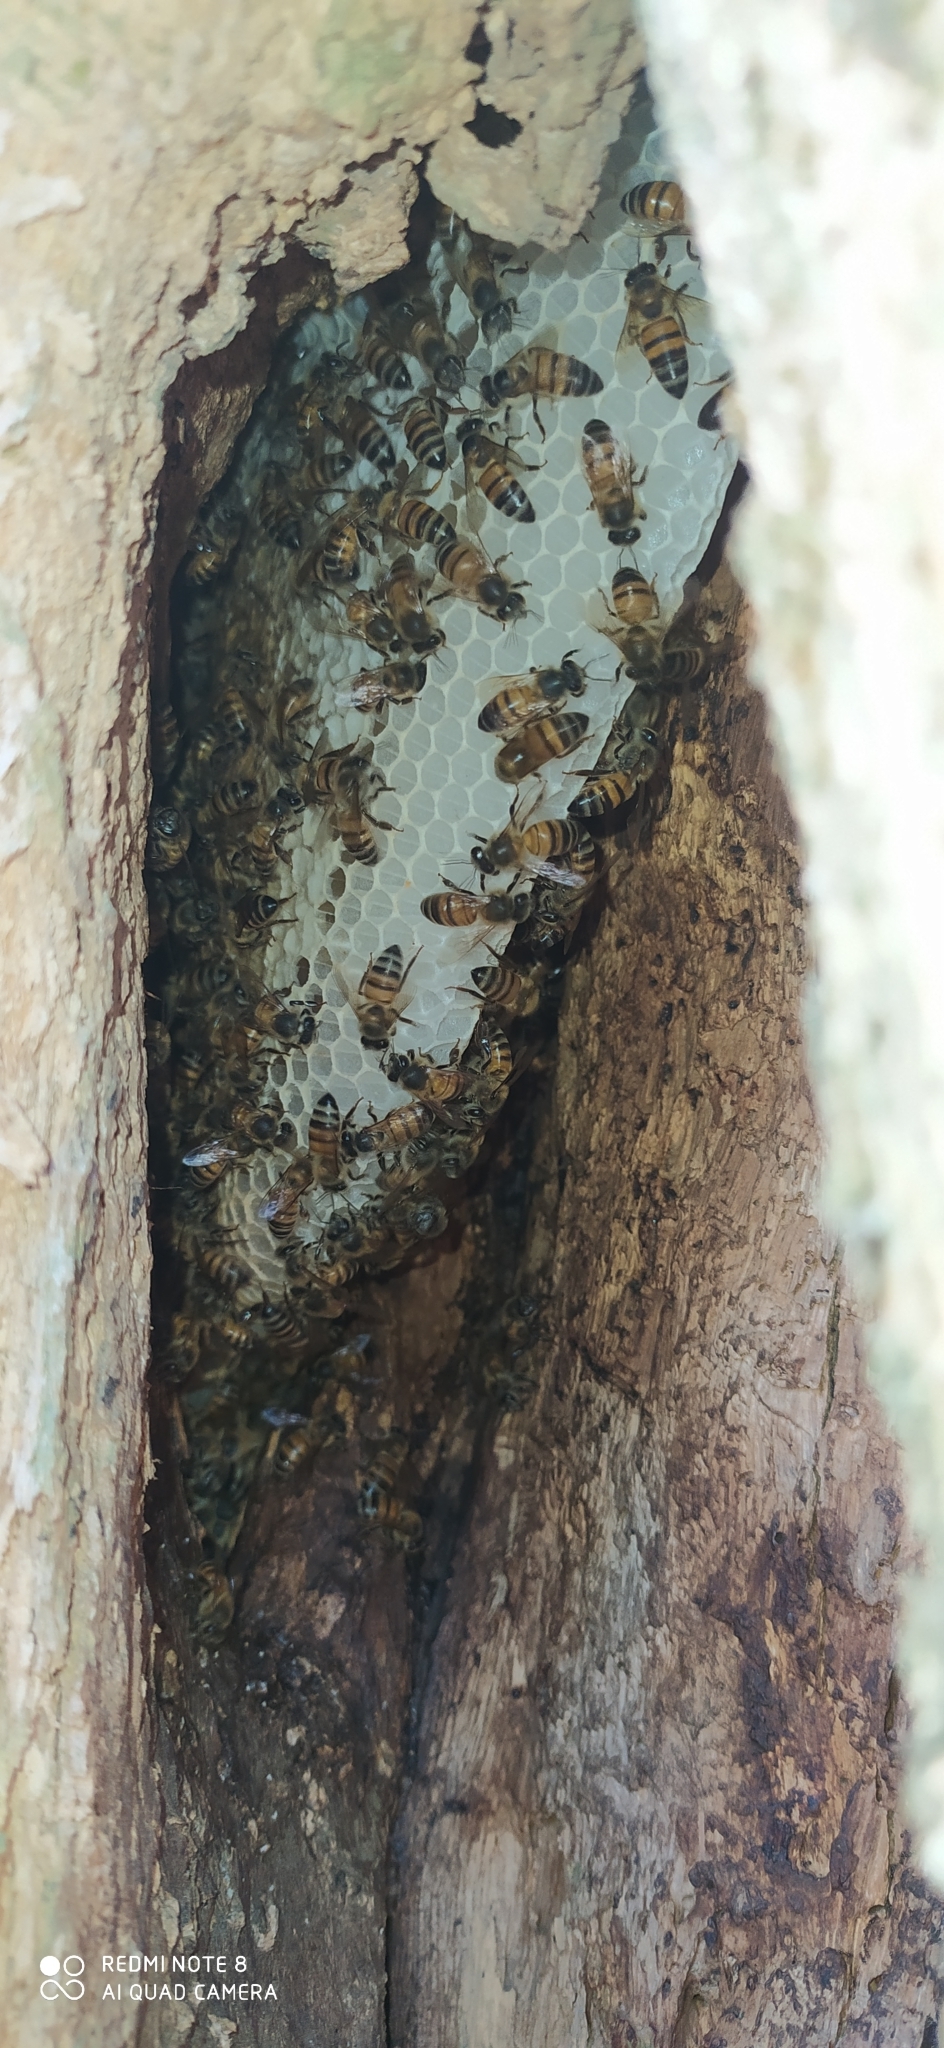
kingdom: Animalia
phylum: Arthropoda
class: Insecta
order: Hymenoptera
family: Apidae
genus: Apis
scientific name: Apis mellifera
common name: Honey bee
